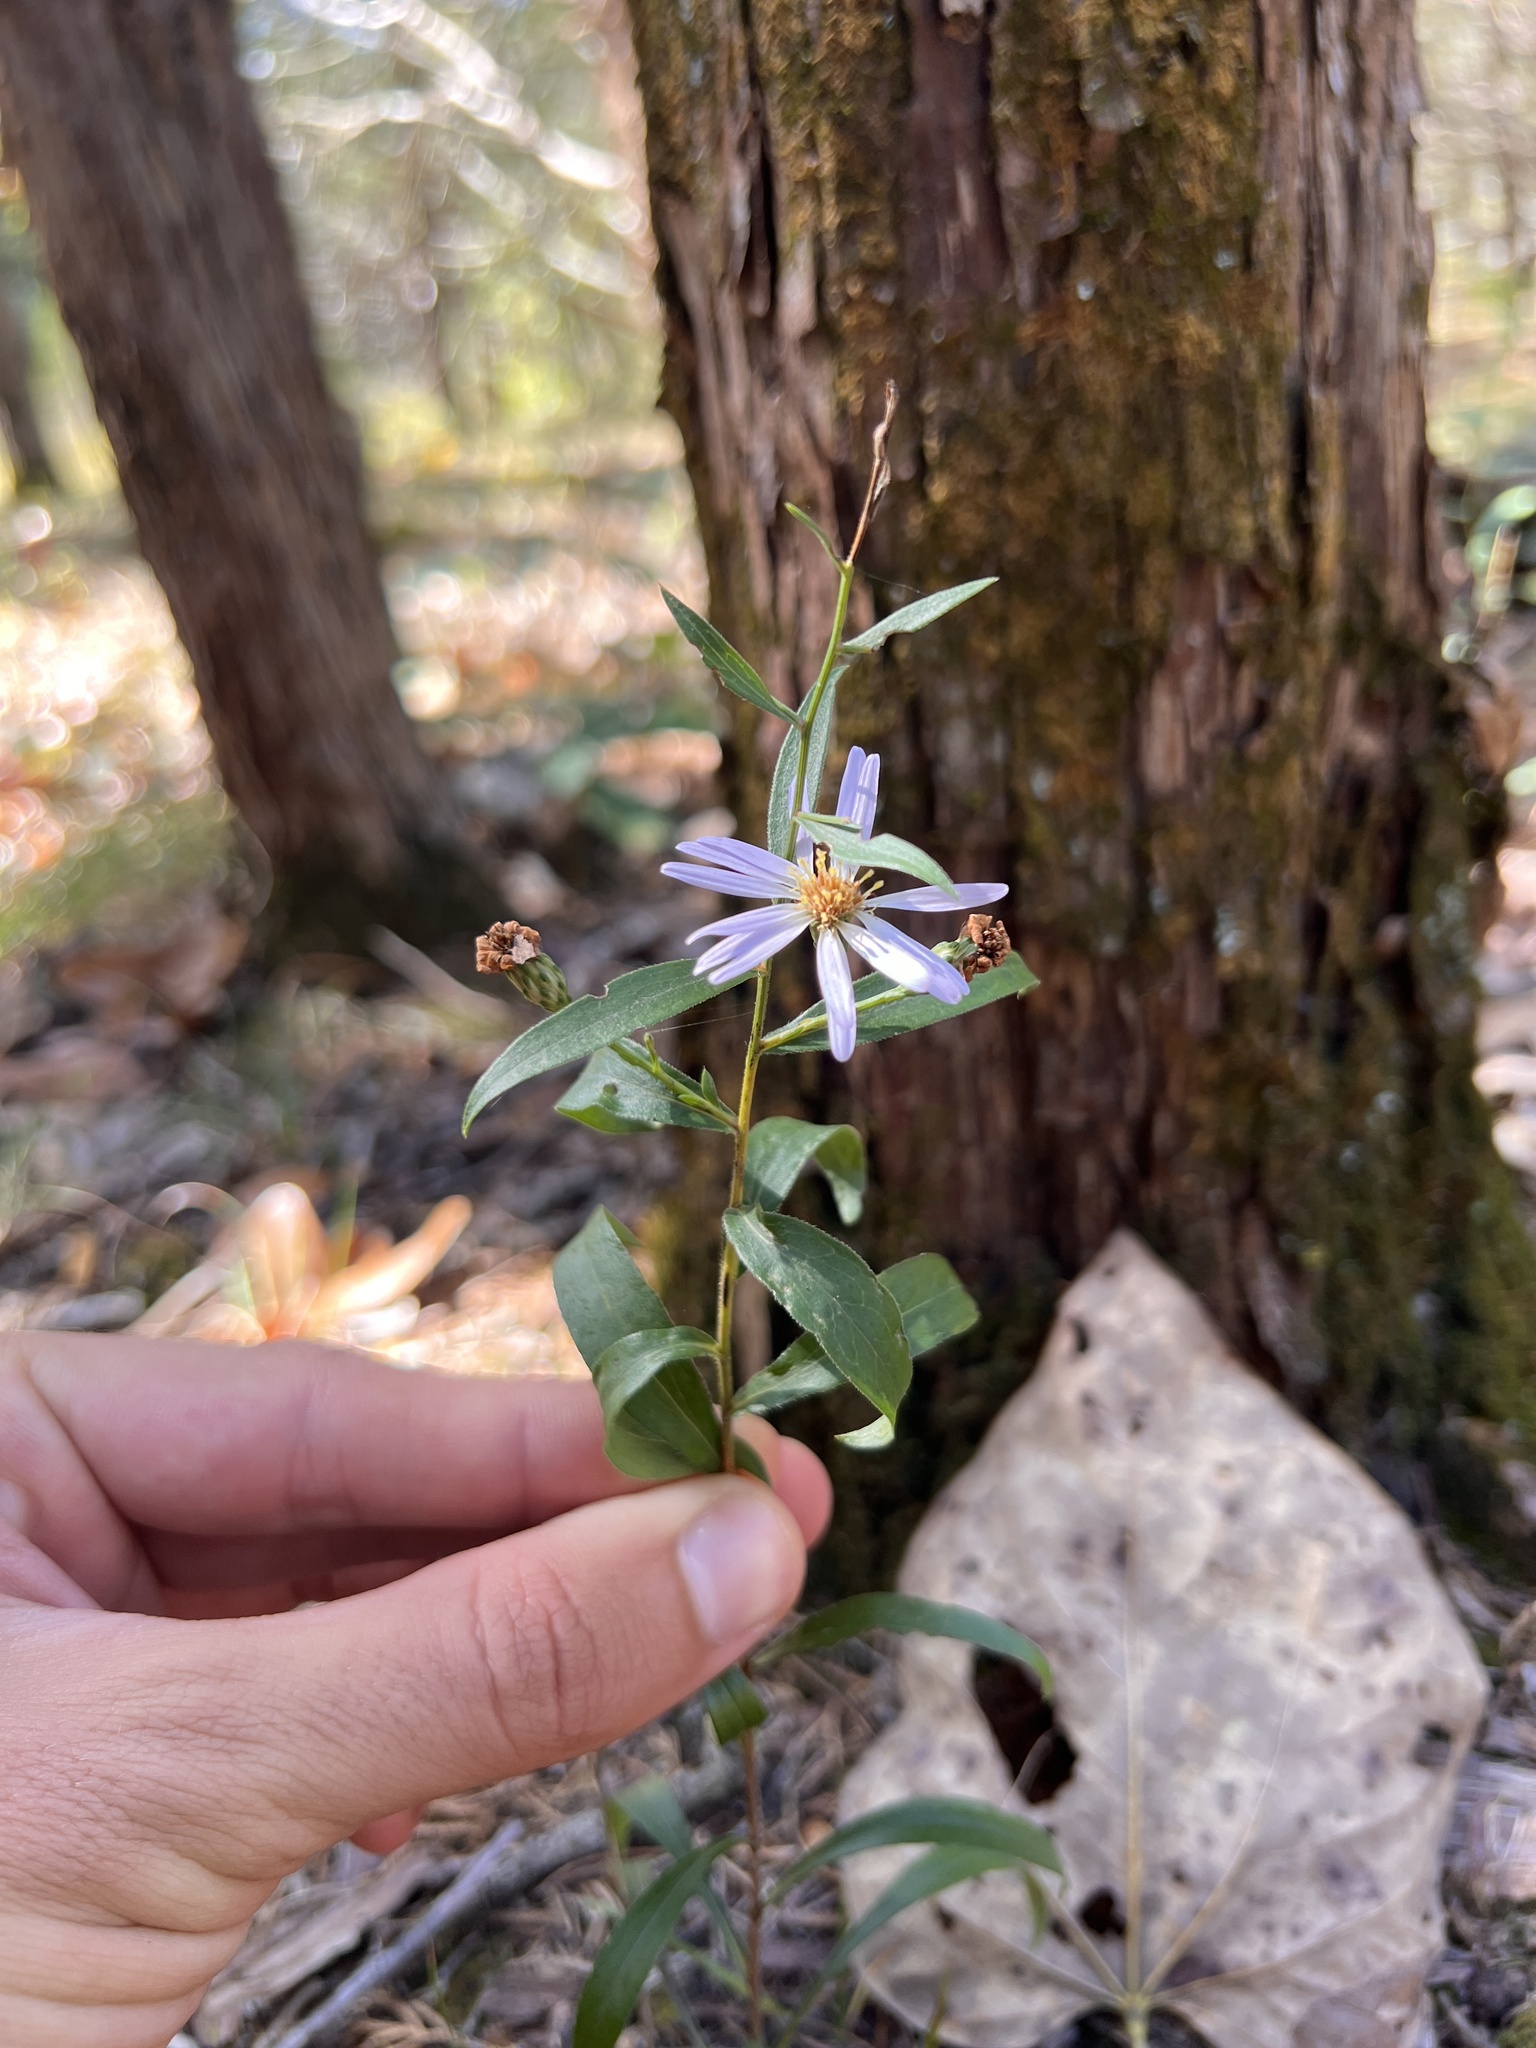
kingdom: Plantae
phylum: Tracheophyta
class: Magnoliopsida
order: Asterales
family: Asteraceae
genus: Symphyotrichum
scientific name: Symphyotrichum turbinellum
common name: Prairie aster
